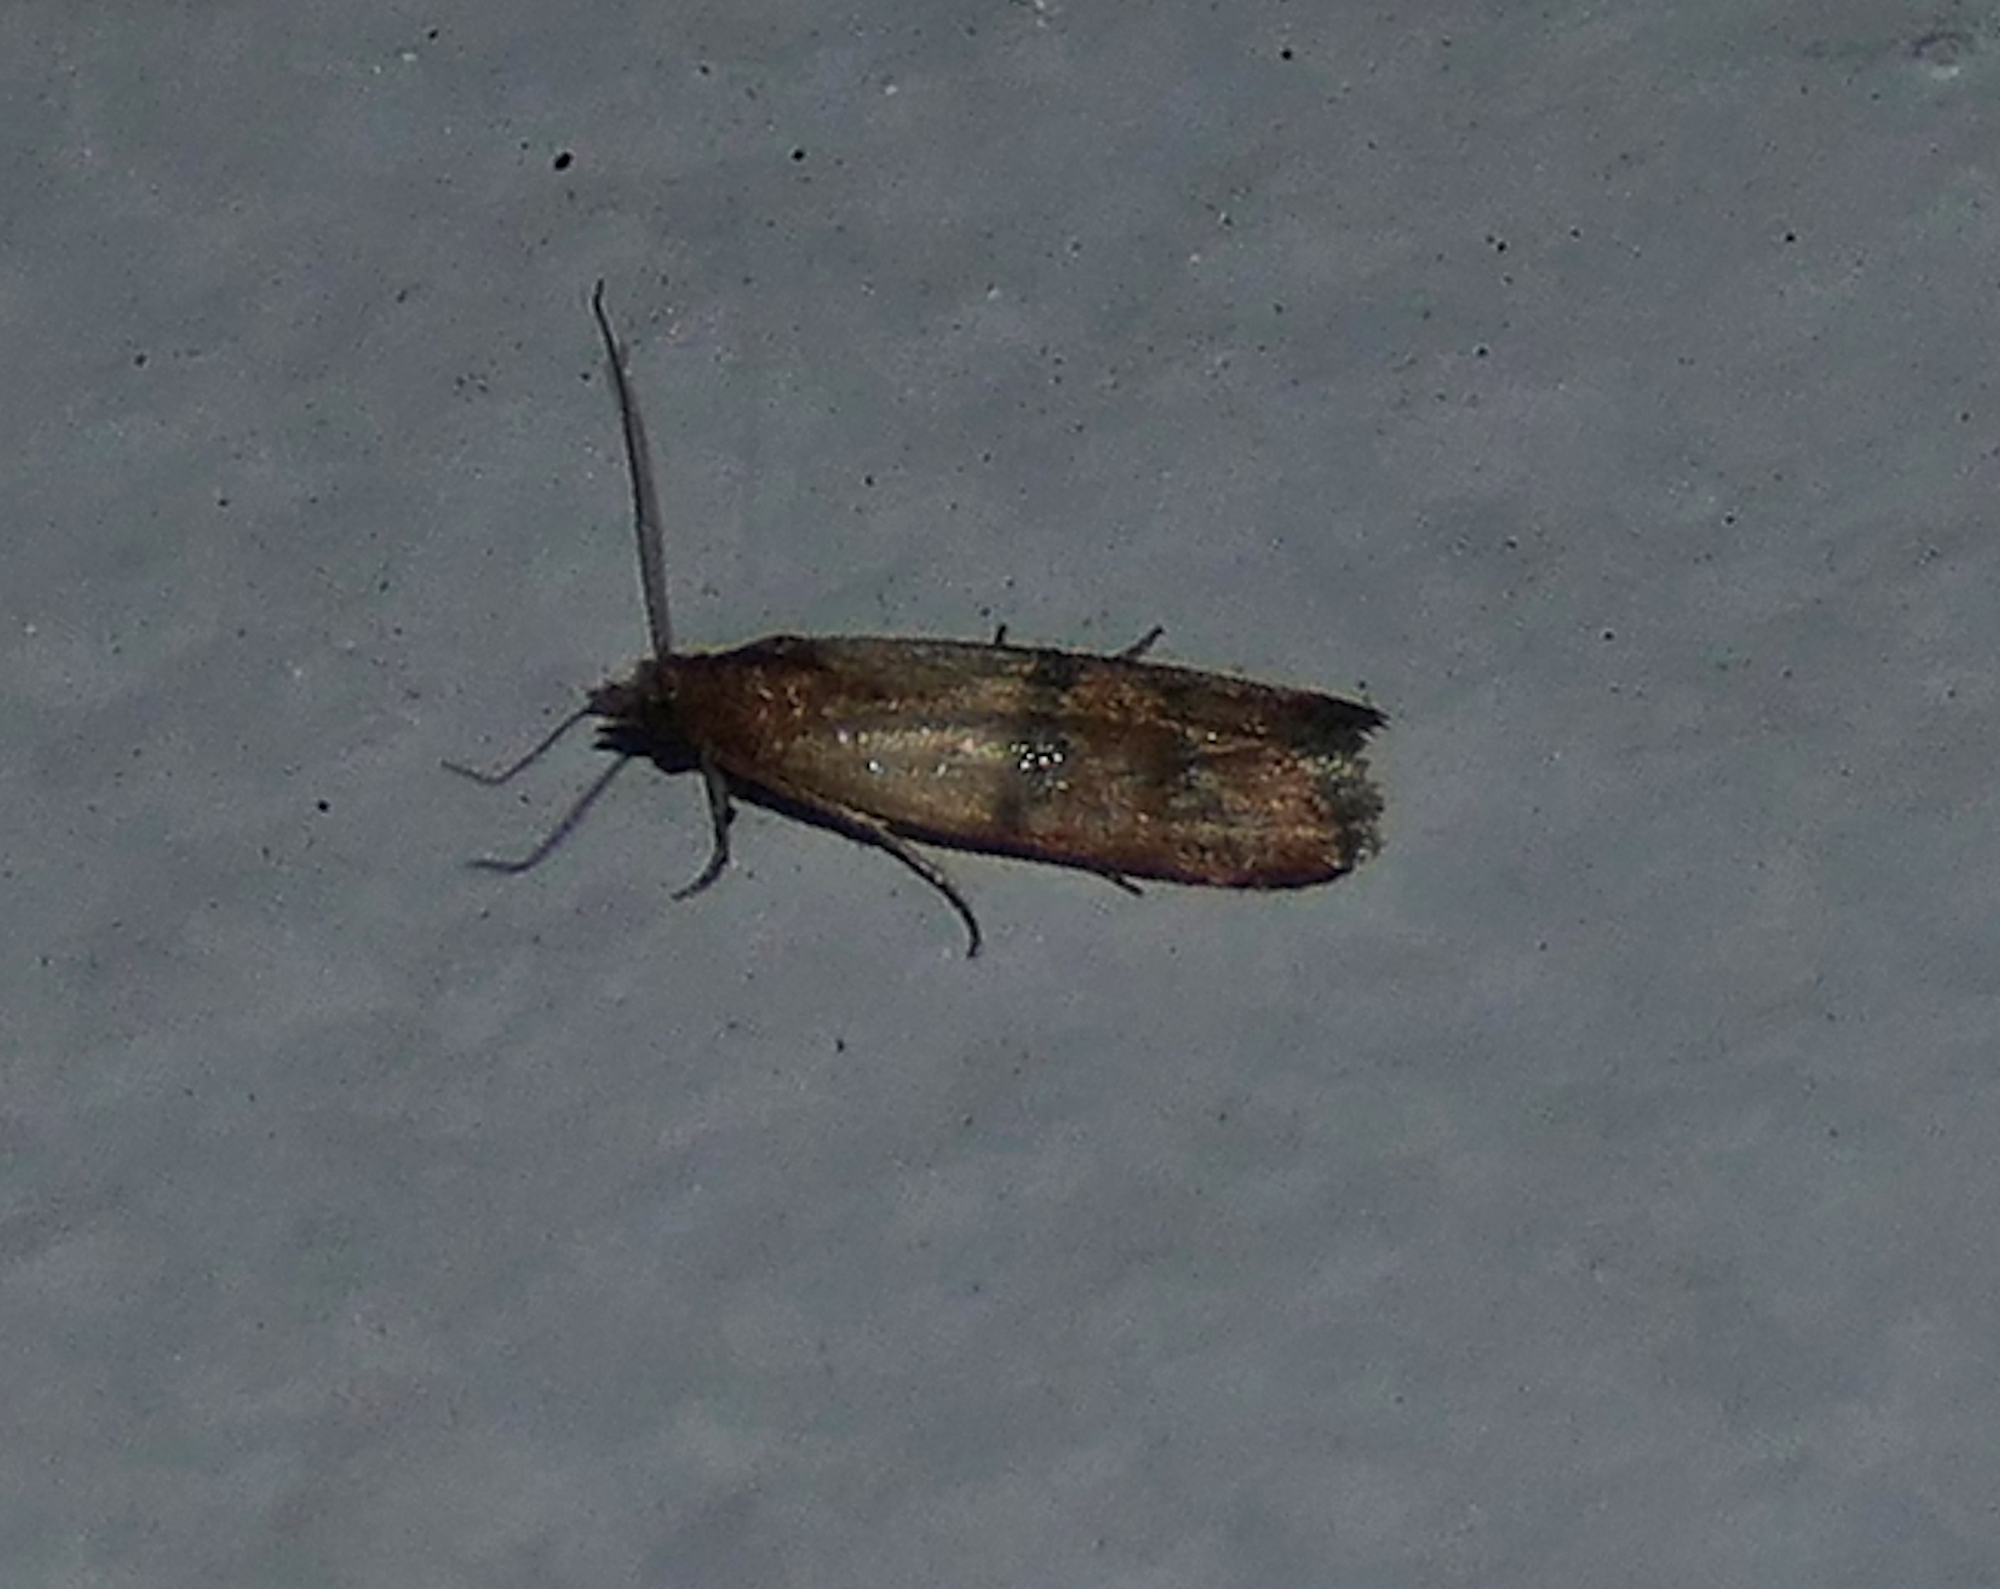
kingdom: Animalia
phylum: Arthropoda
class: Insecta
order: Lepidoptera
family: Pyralidae
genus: Plodia
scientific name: Plodia interpunctella
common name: Indian meal moth
